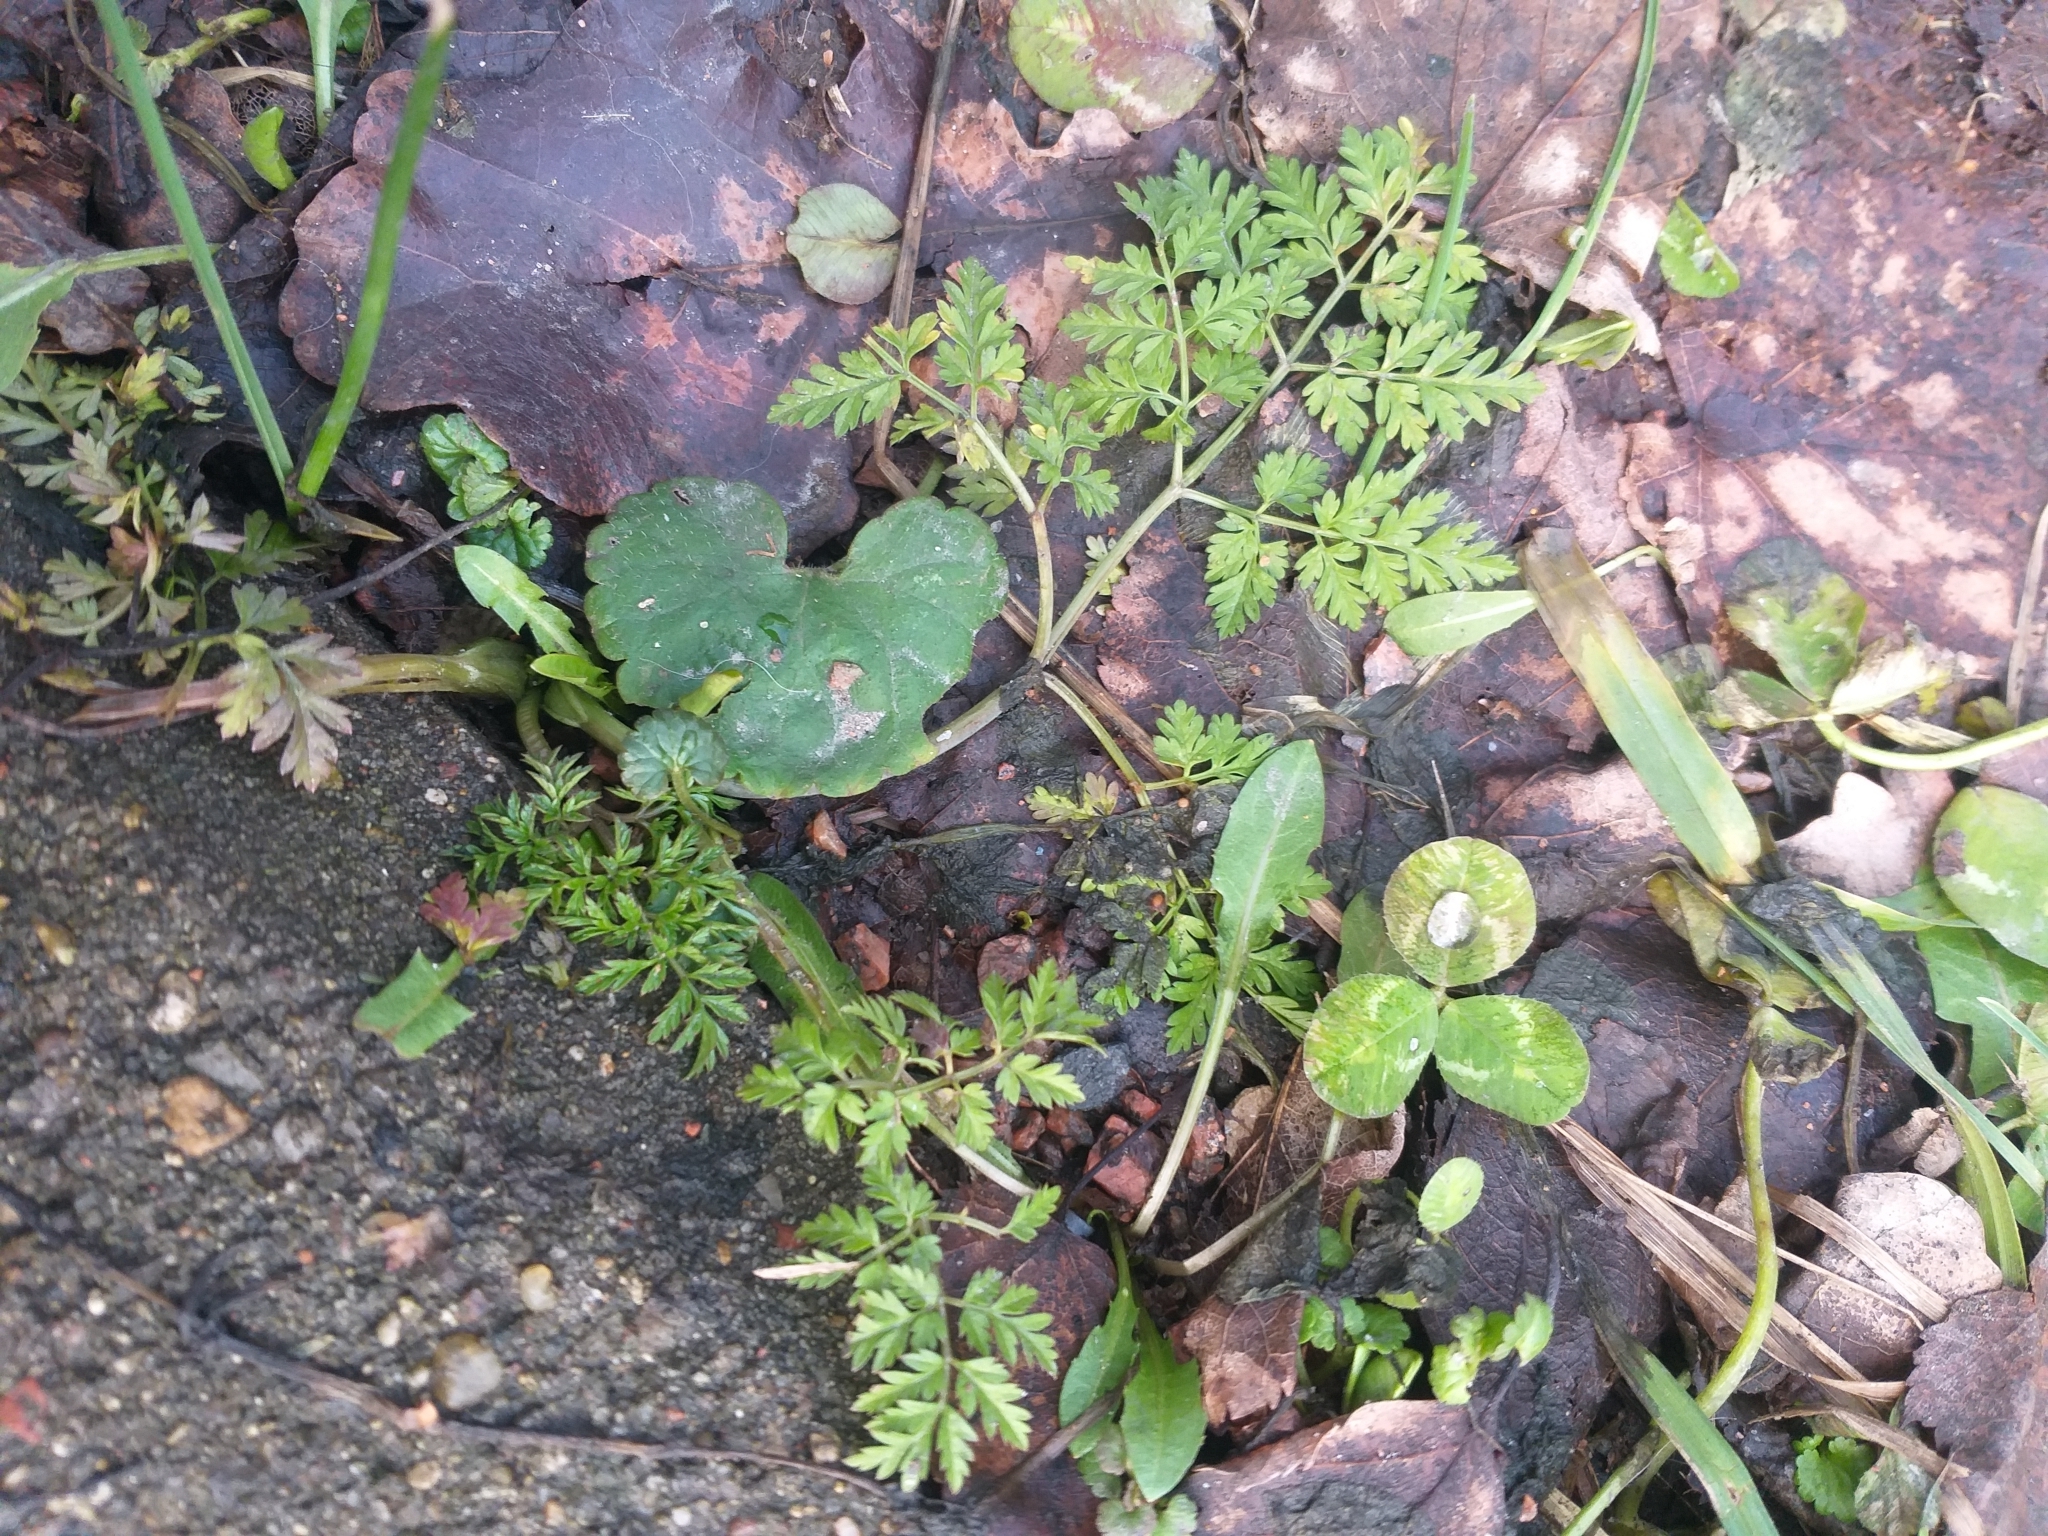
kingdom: Plantae
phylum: Tracheophyta
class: Magnoliopsida
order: Apiales
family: Apiaceae
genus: Anthriscus
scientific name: Anthriscus sylvestris
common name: Cow parsley
